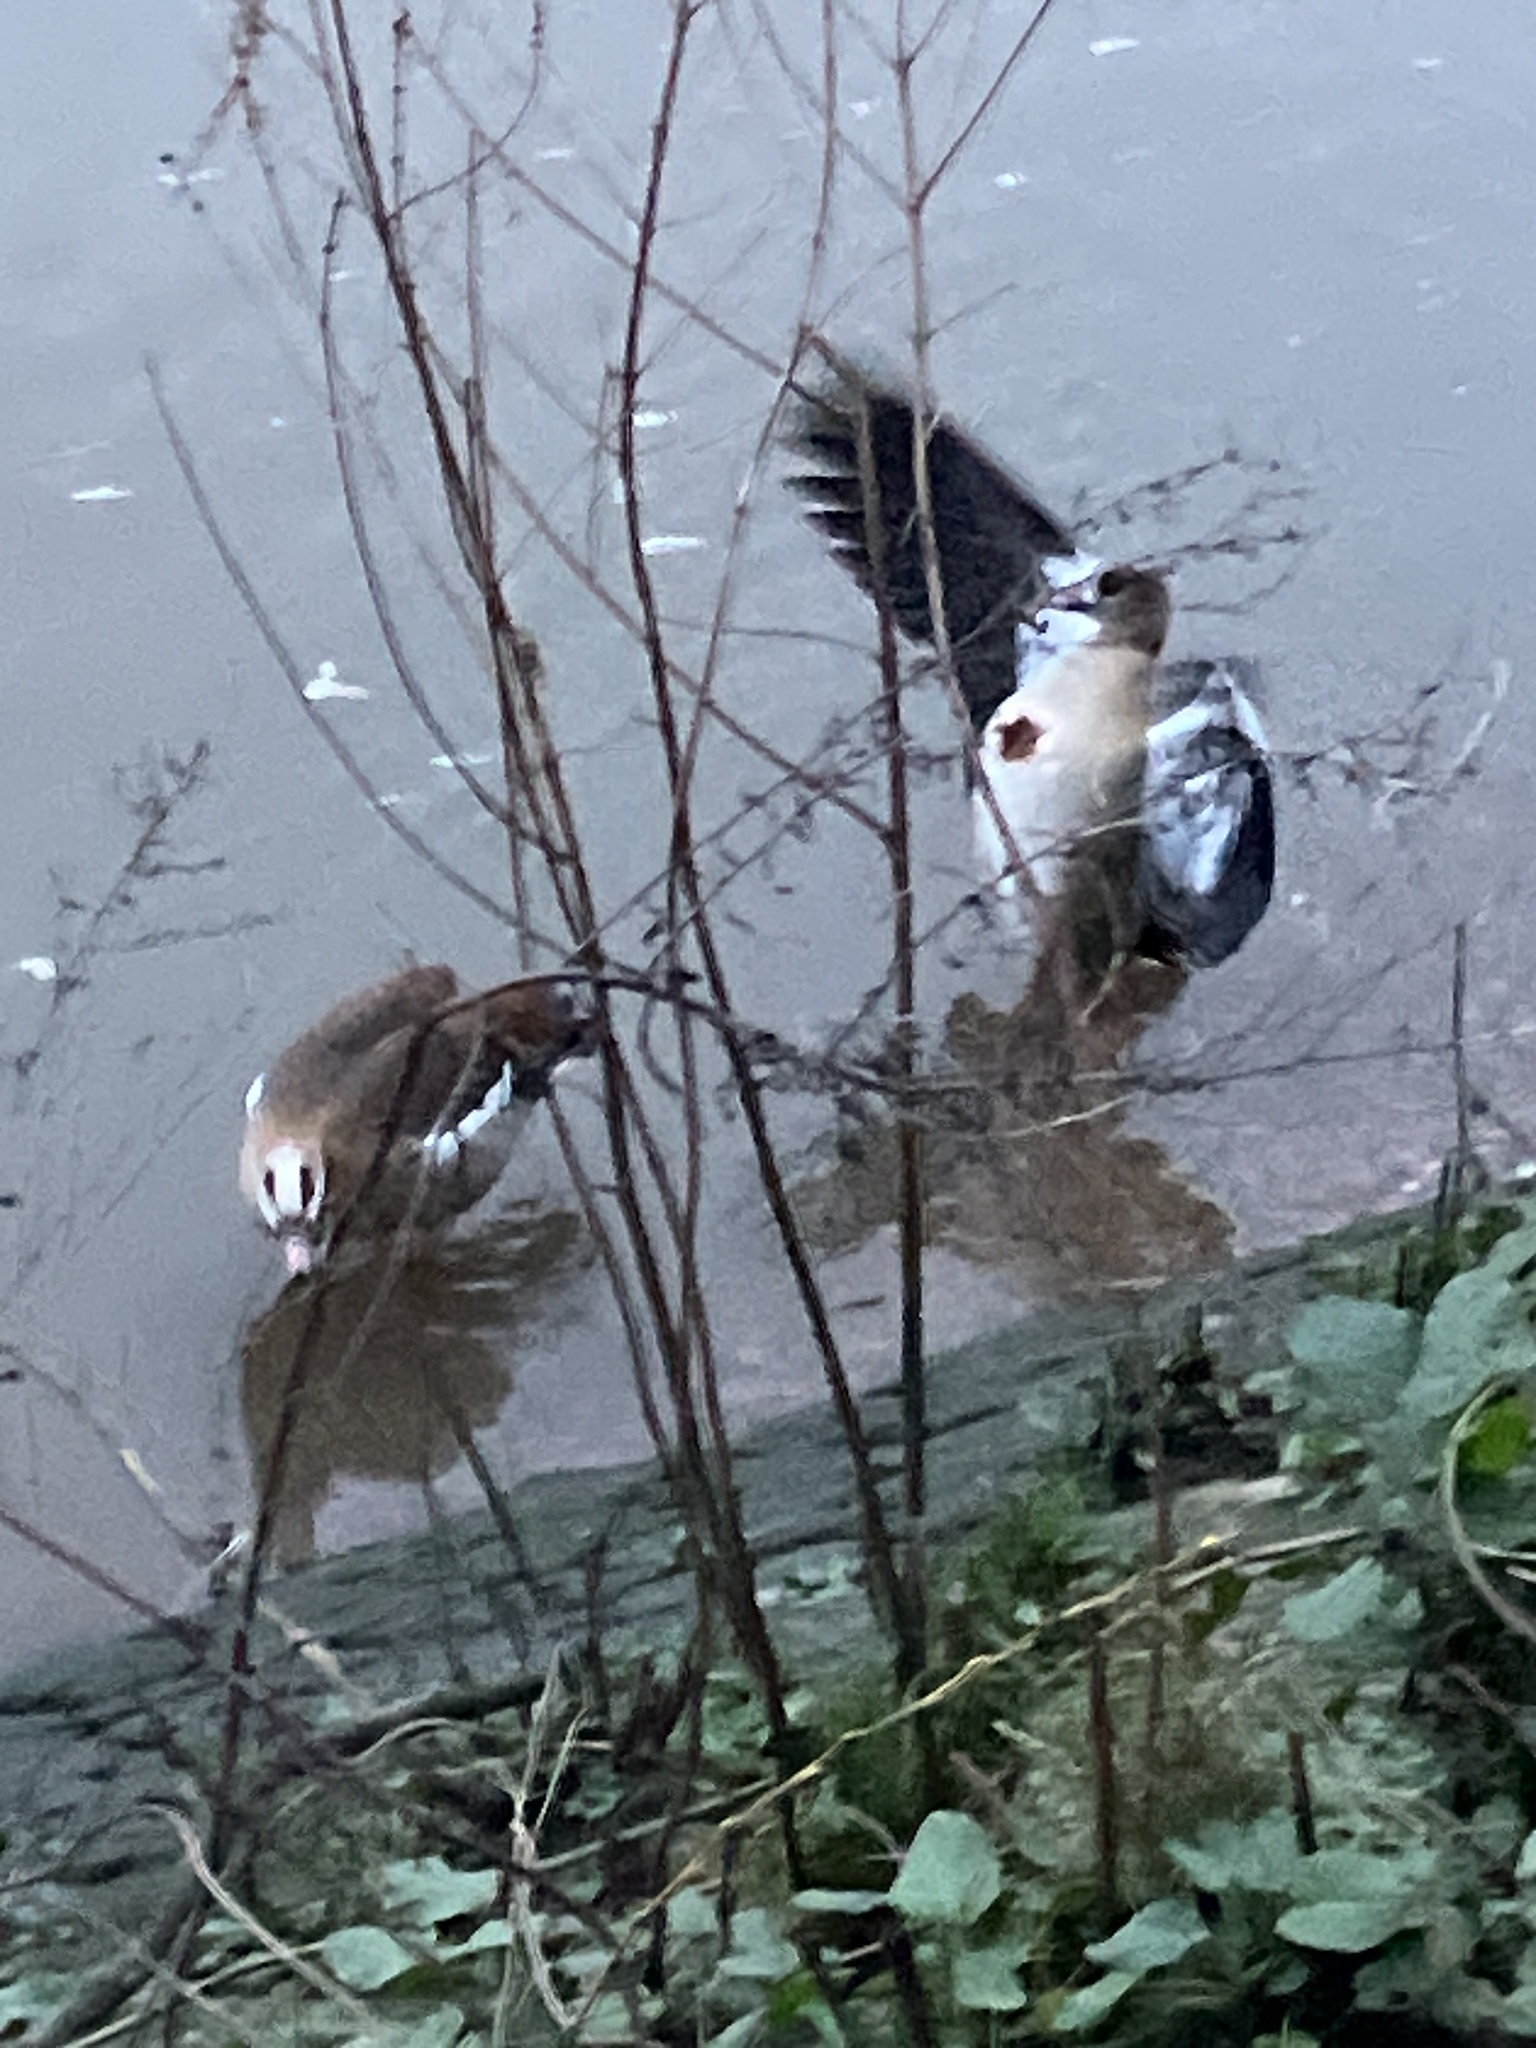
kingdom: Animalia
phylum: Chordata
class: Aves
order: Anseriformes
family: Anatidae
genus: Alopochen
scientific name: Alopochen aegyptiaca
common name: Egyptian goose
